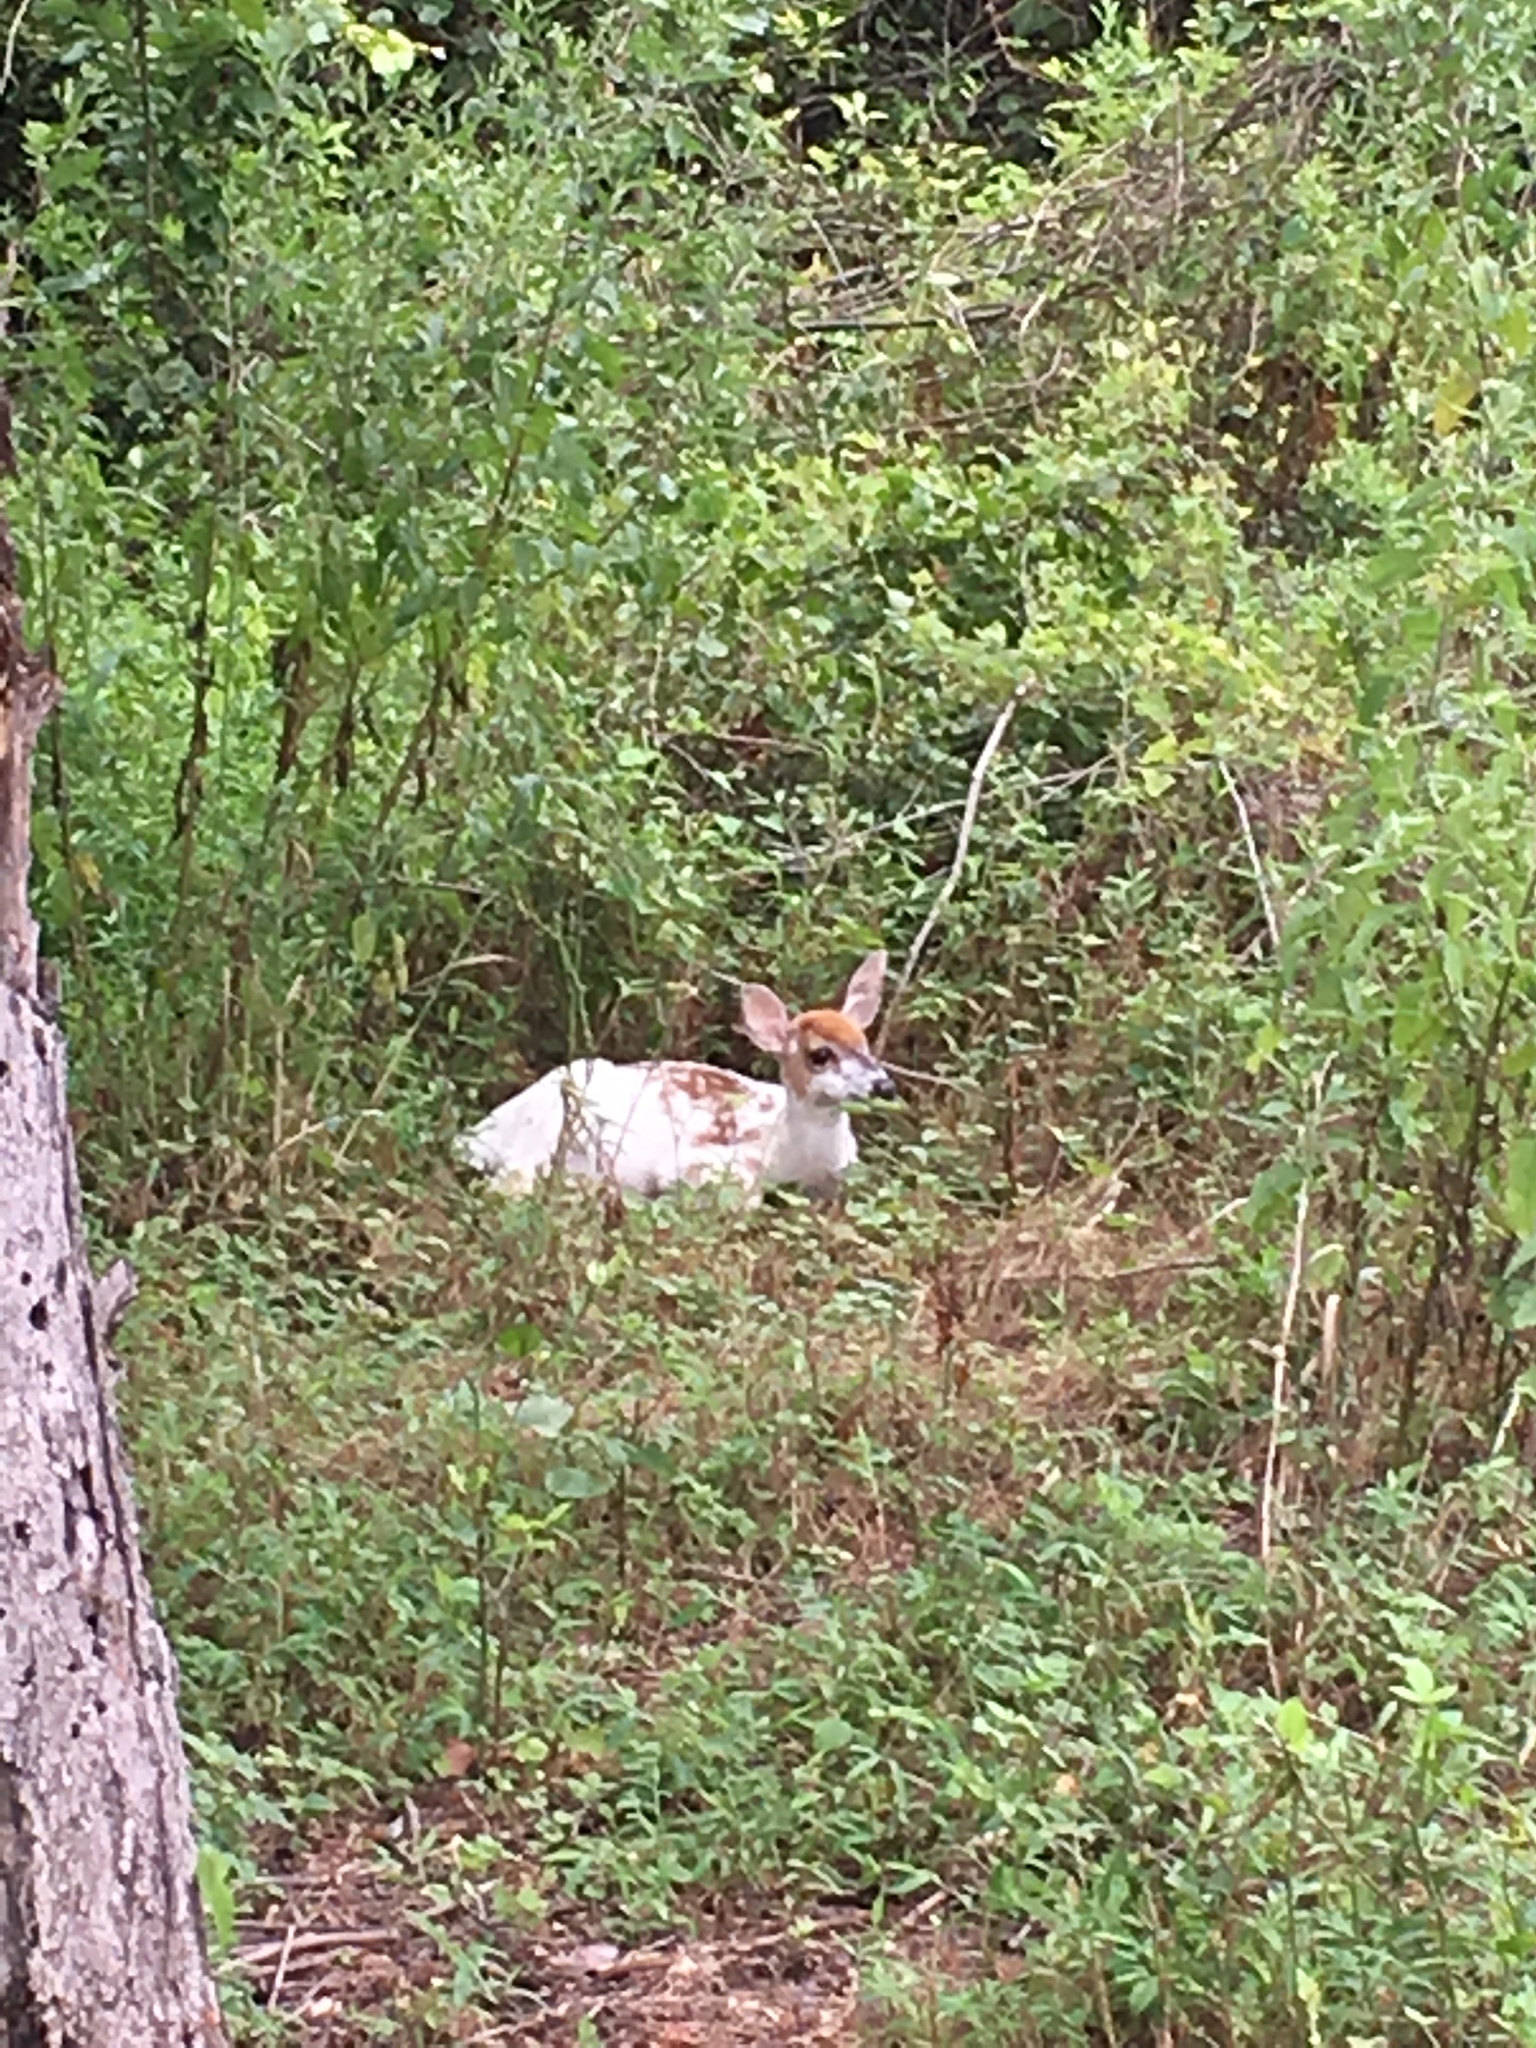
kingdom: Animalia
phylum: Chordata
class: Mammalia
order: Artiodactyla
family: Cervidae
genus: Odocoileus
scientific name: Odocoileus virginianus
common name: White-tailed deer
